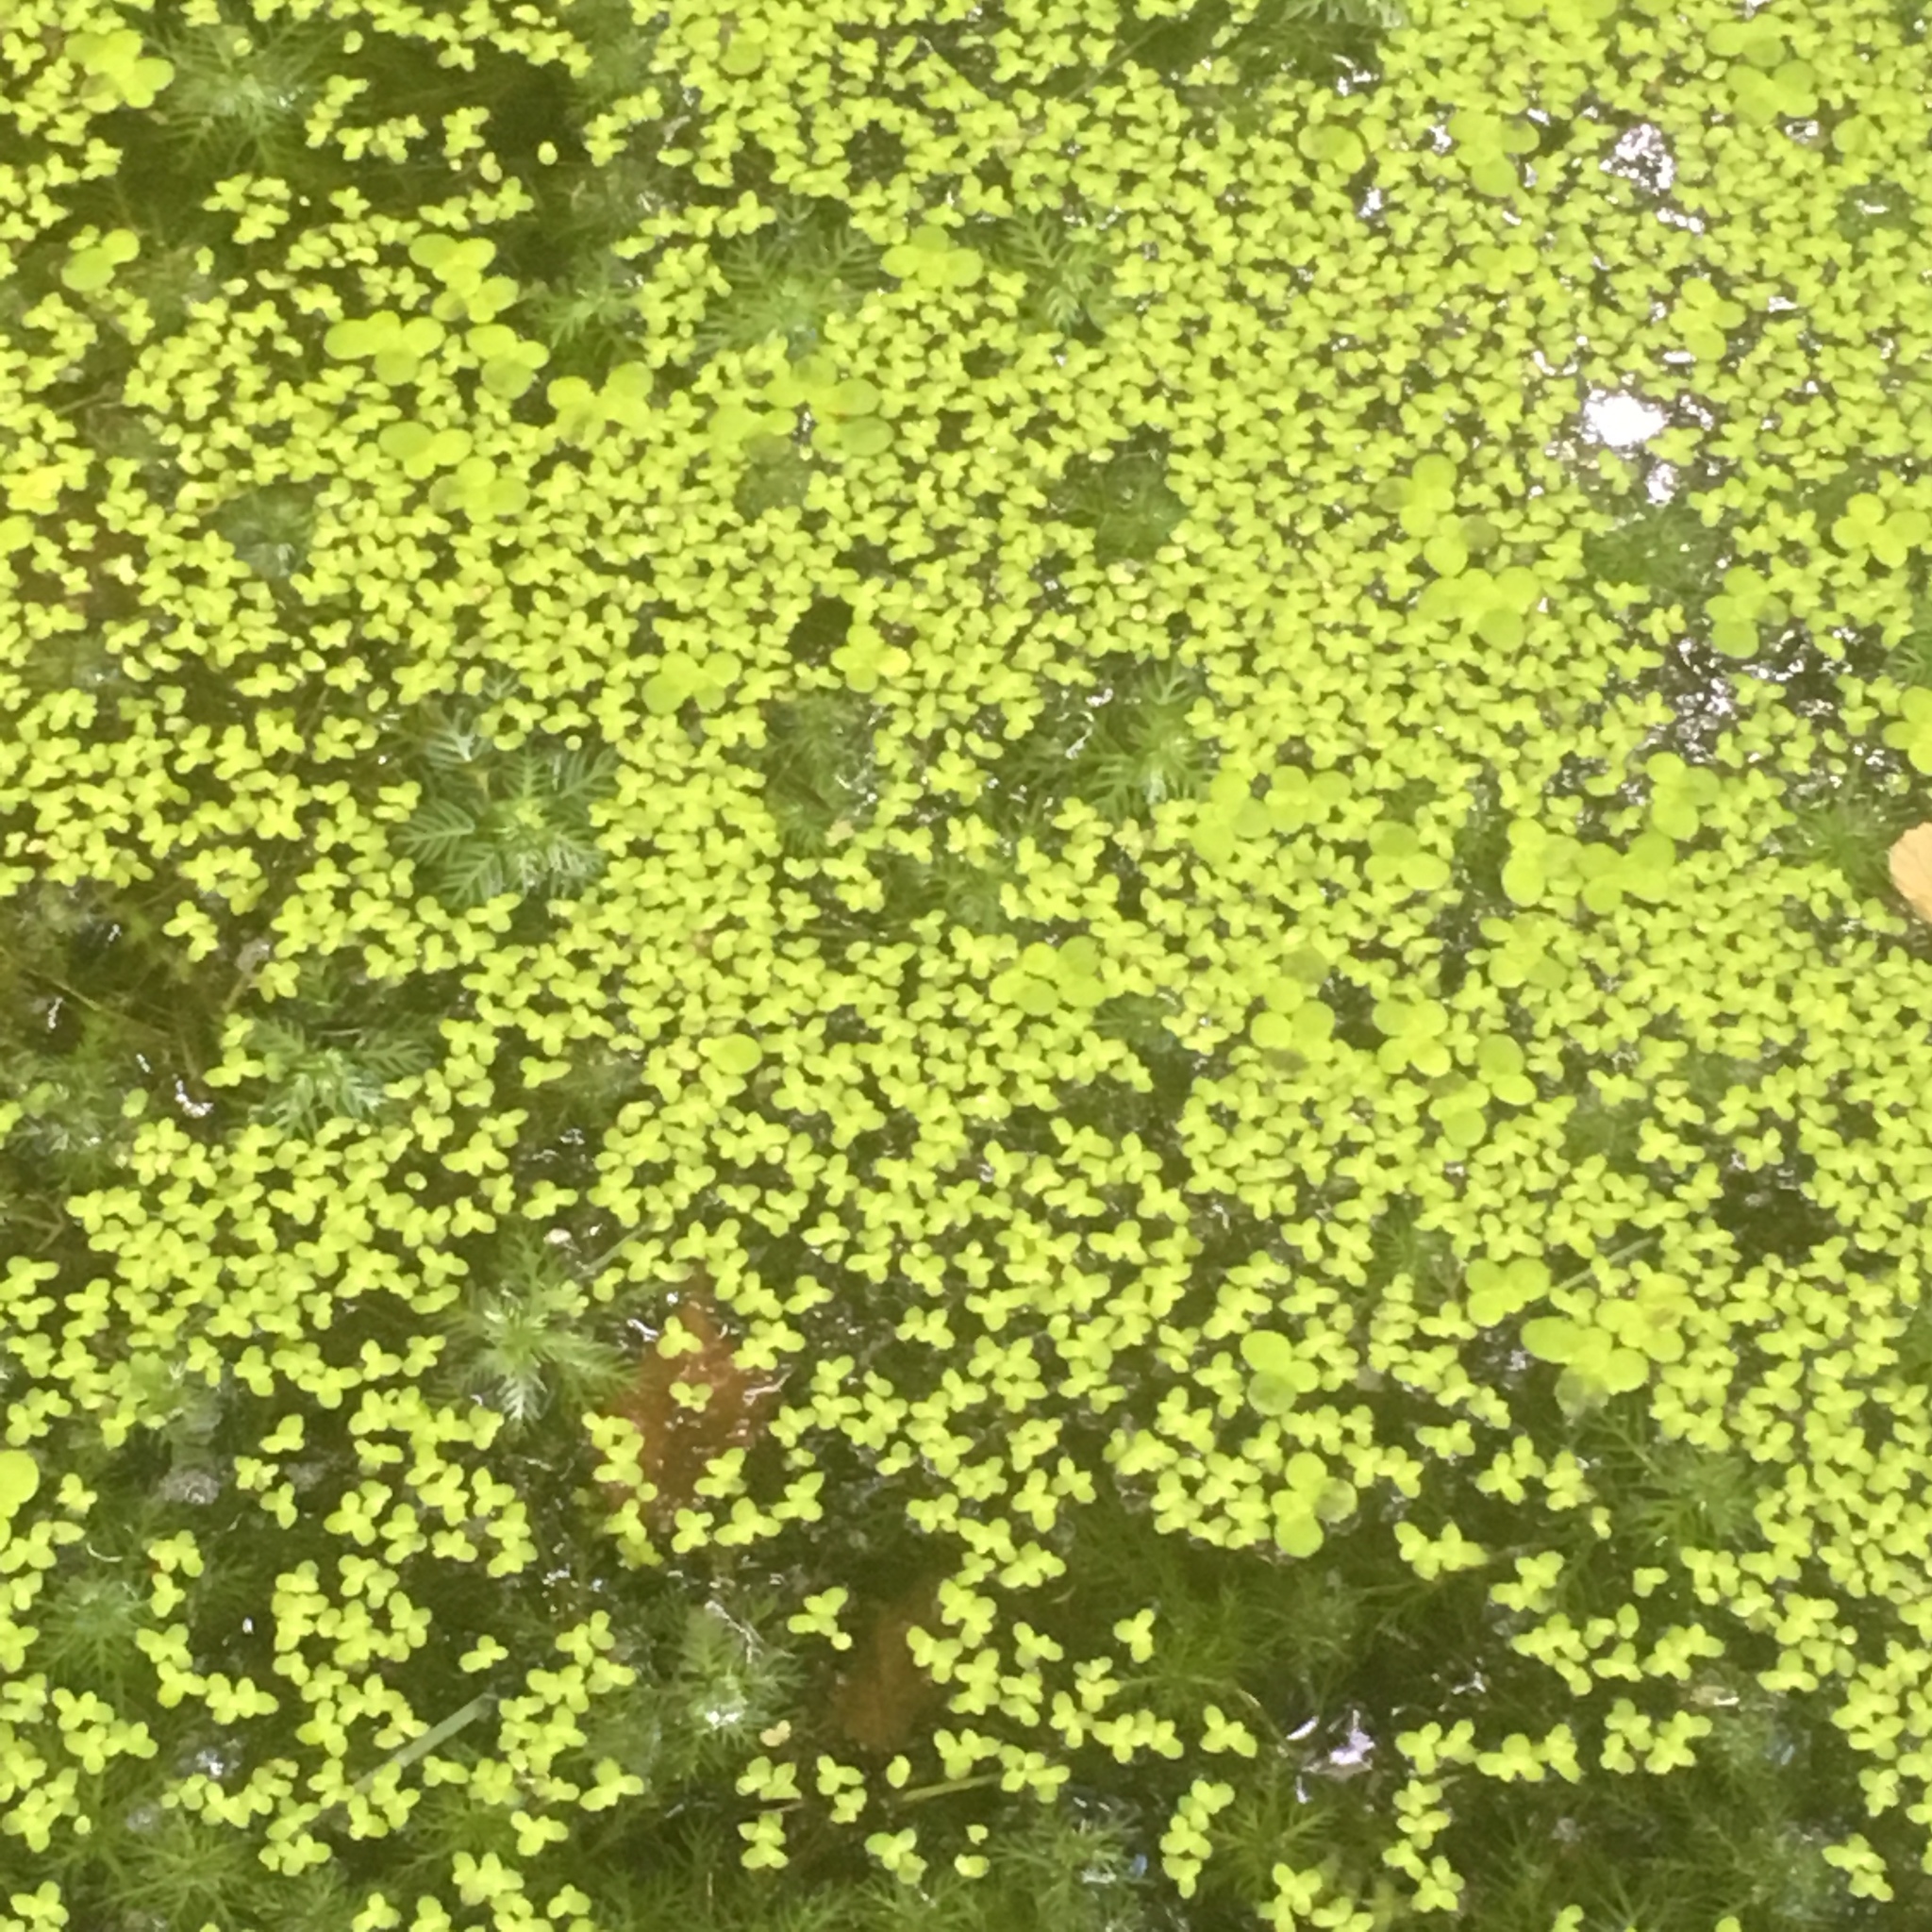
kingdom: Plantae
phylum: Tracheophyta
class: Liliopsida
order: Alismatales
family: Araceae
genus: Lemna
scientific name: Lemna minor
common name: Common duckweed
